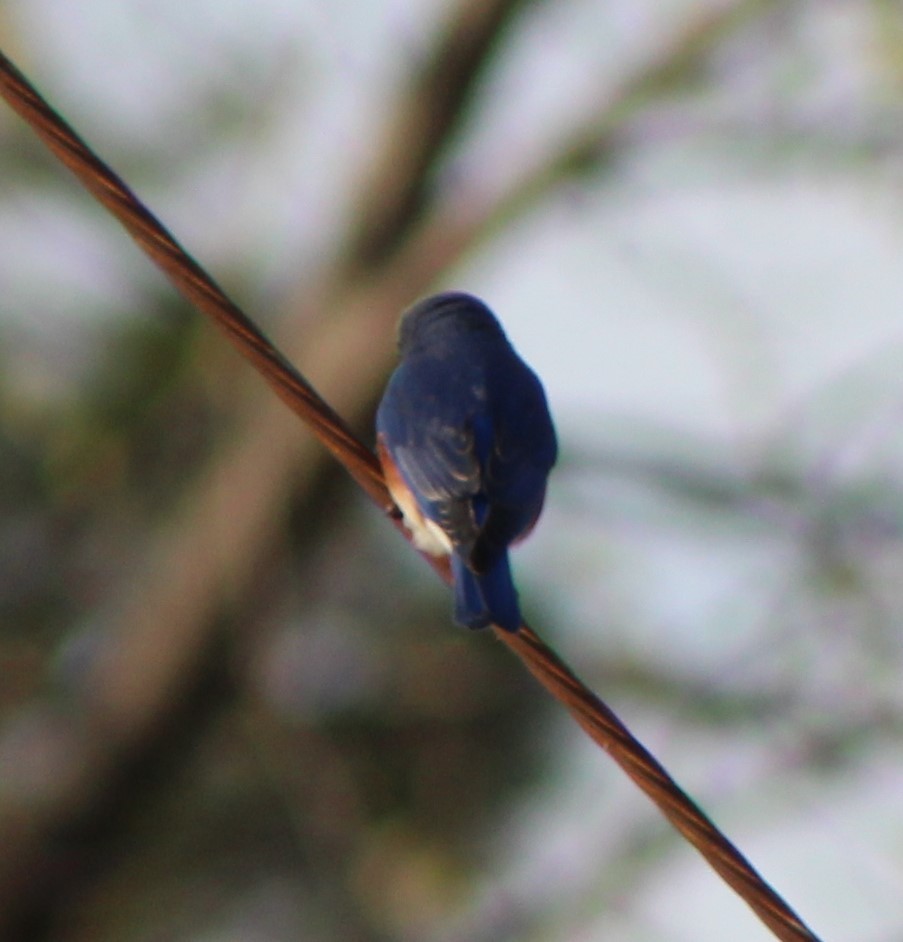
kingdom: Animalia
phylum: Chordata
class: Aves
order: Passeriformes
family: Turdidae
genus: Sialia
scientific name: Sialia sialis
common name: Eastern bluebird
